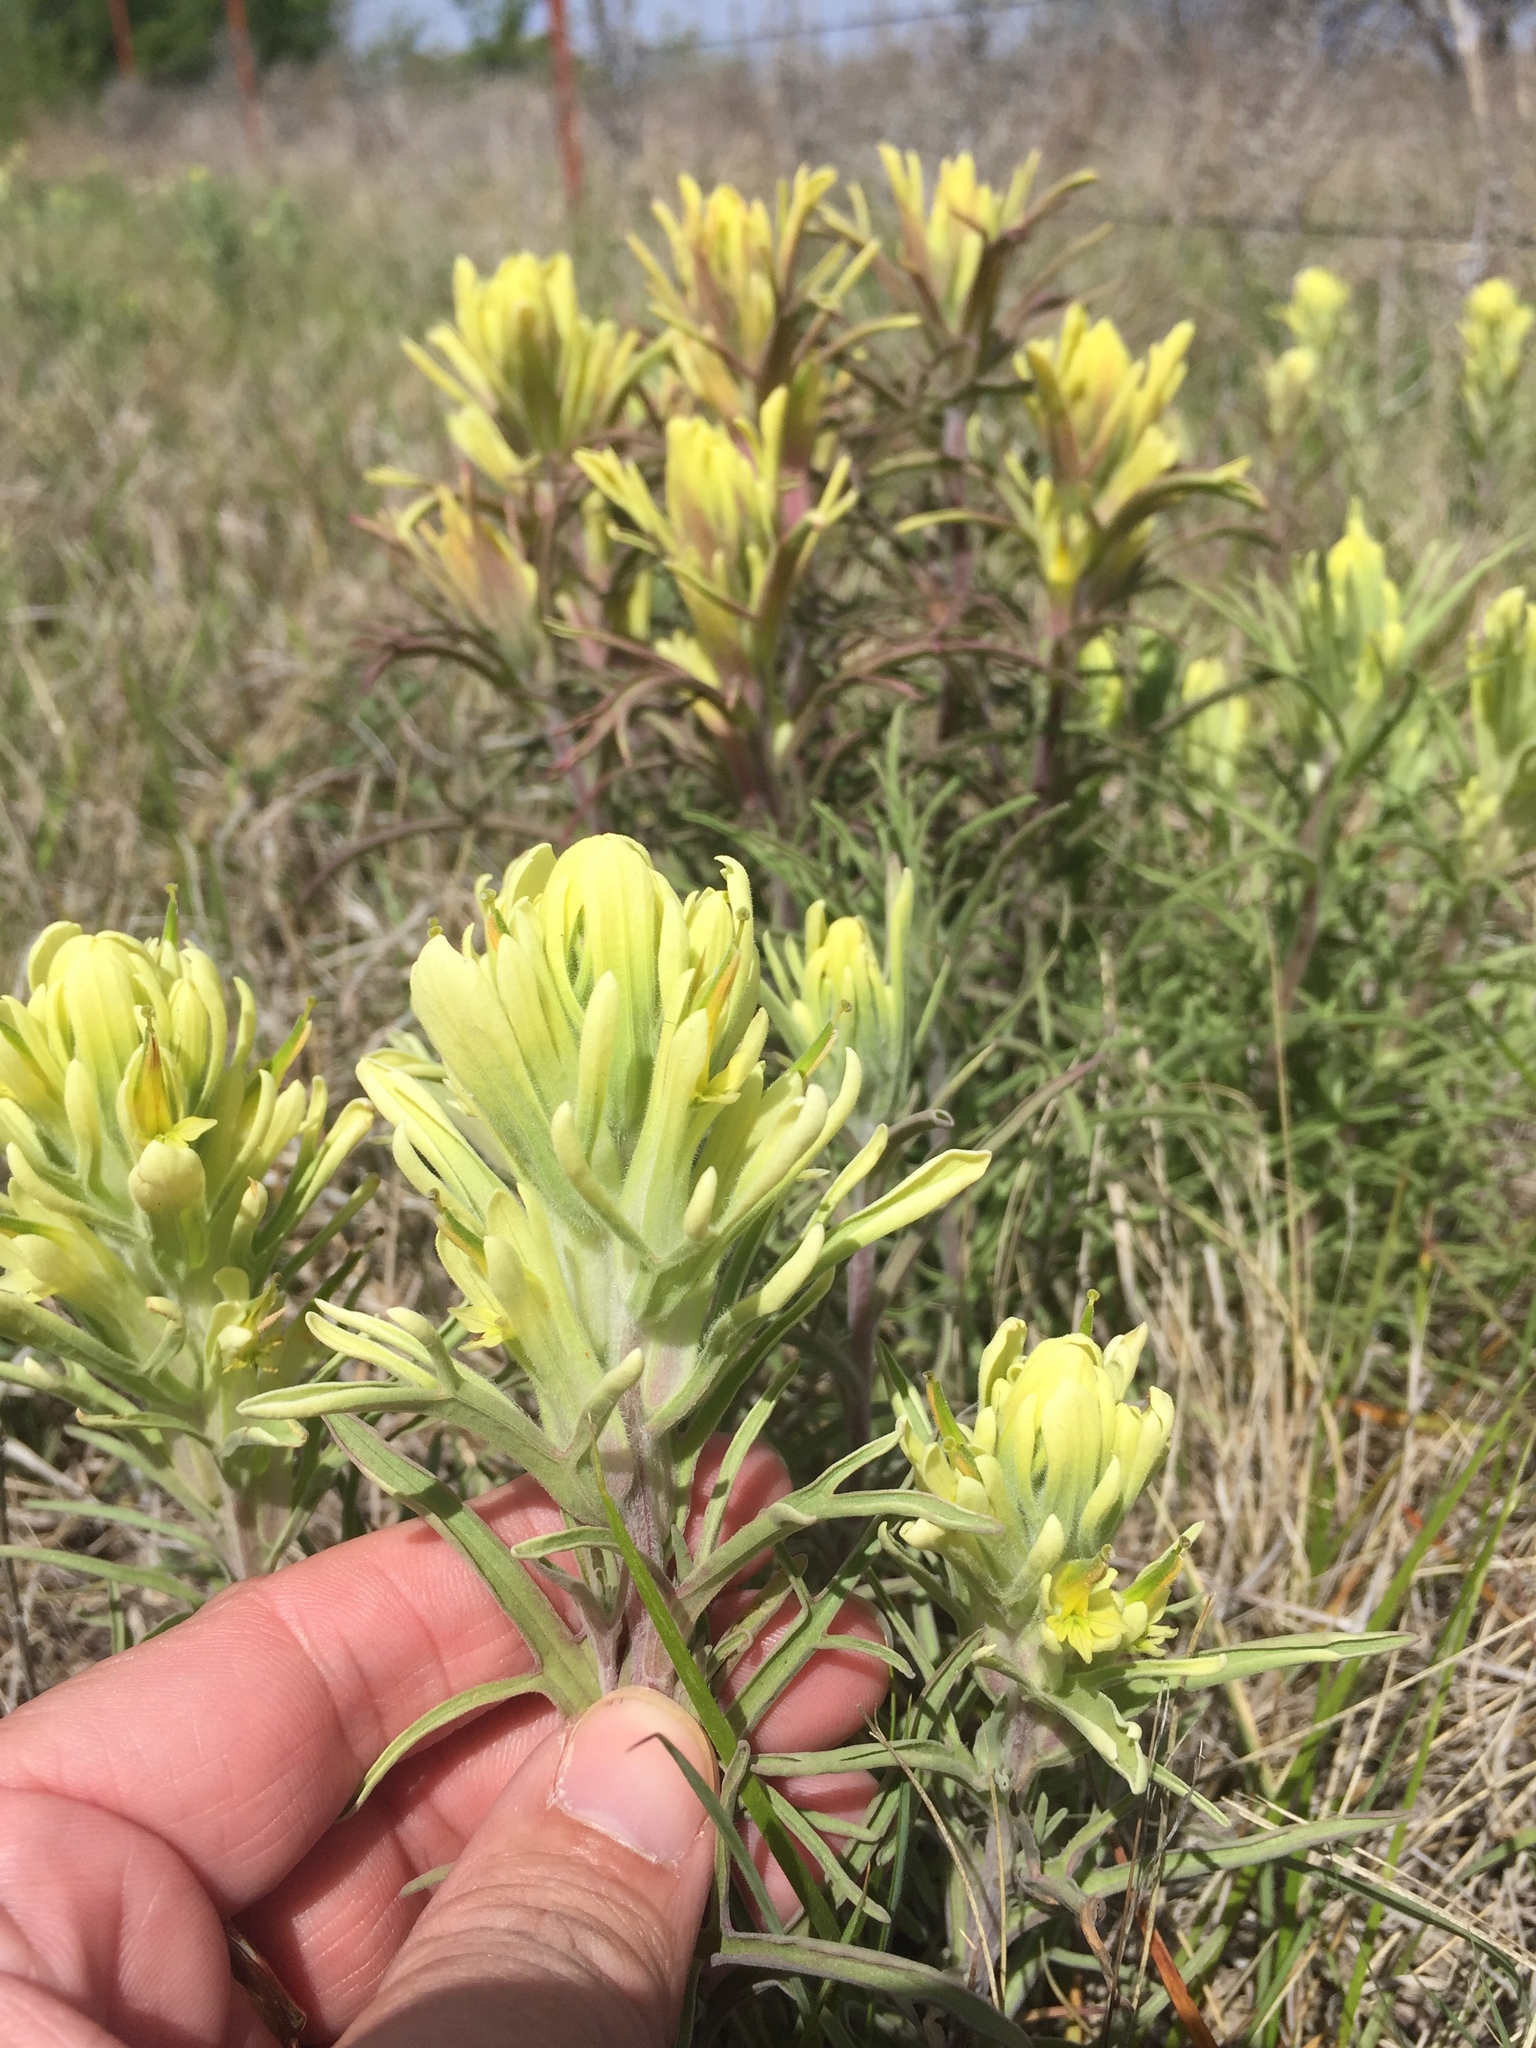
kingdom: Plantae
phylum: Tracheophyta
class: Magnoliopsida
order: Lamiales
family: Orobanchaceae
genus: Castilleja
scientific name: Castilleja citrina
